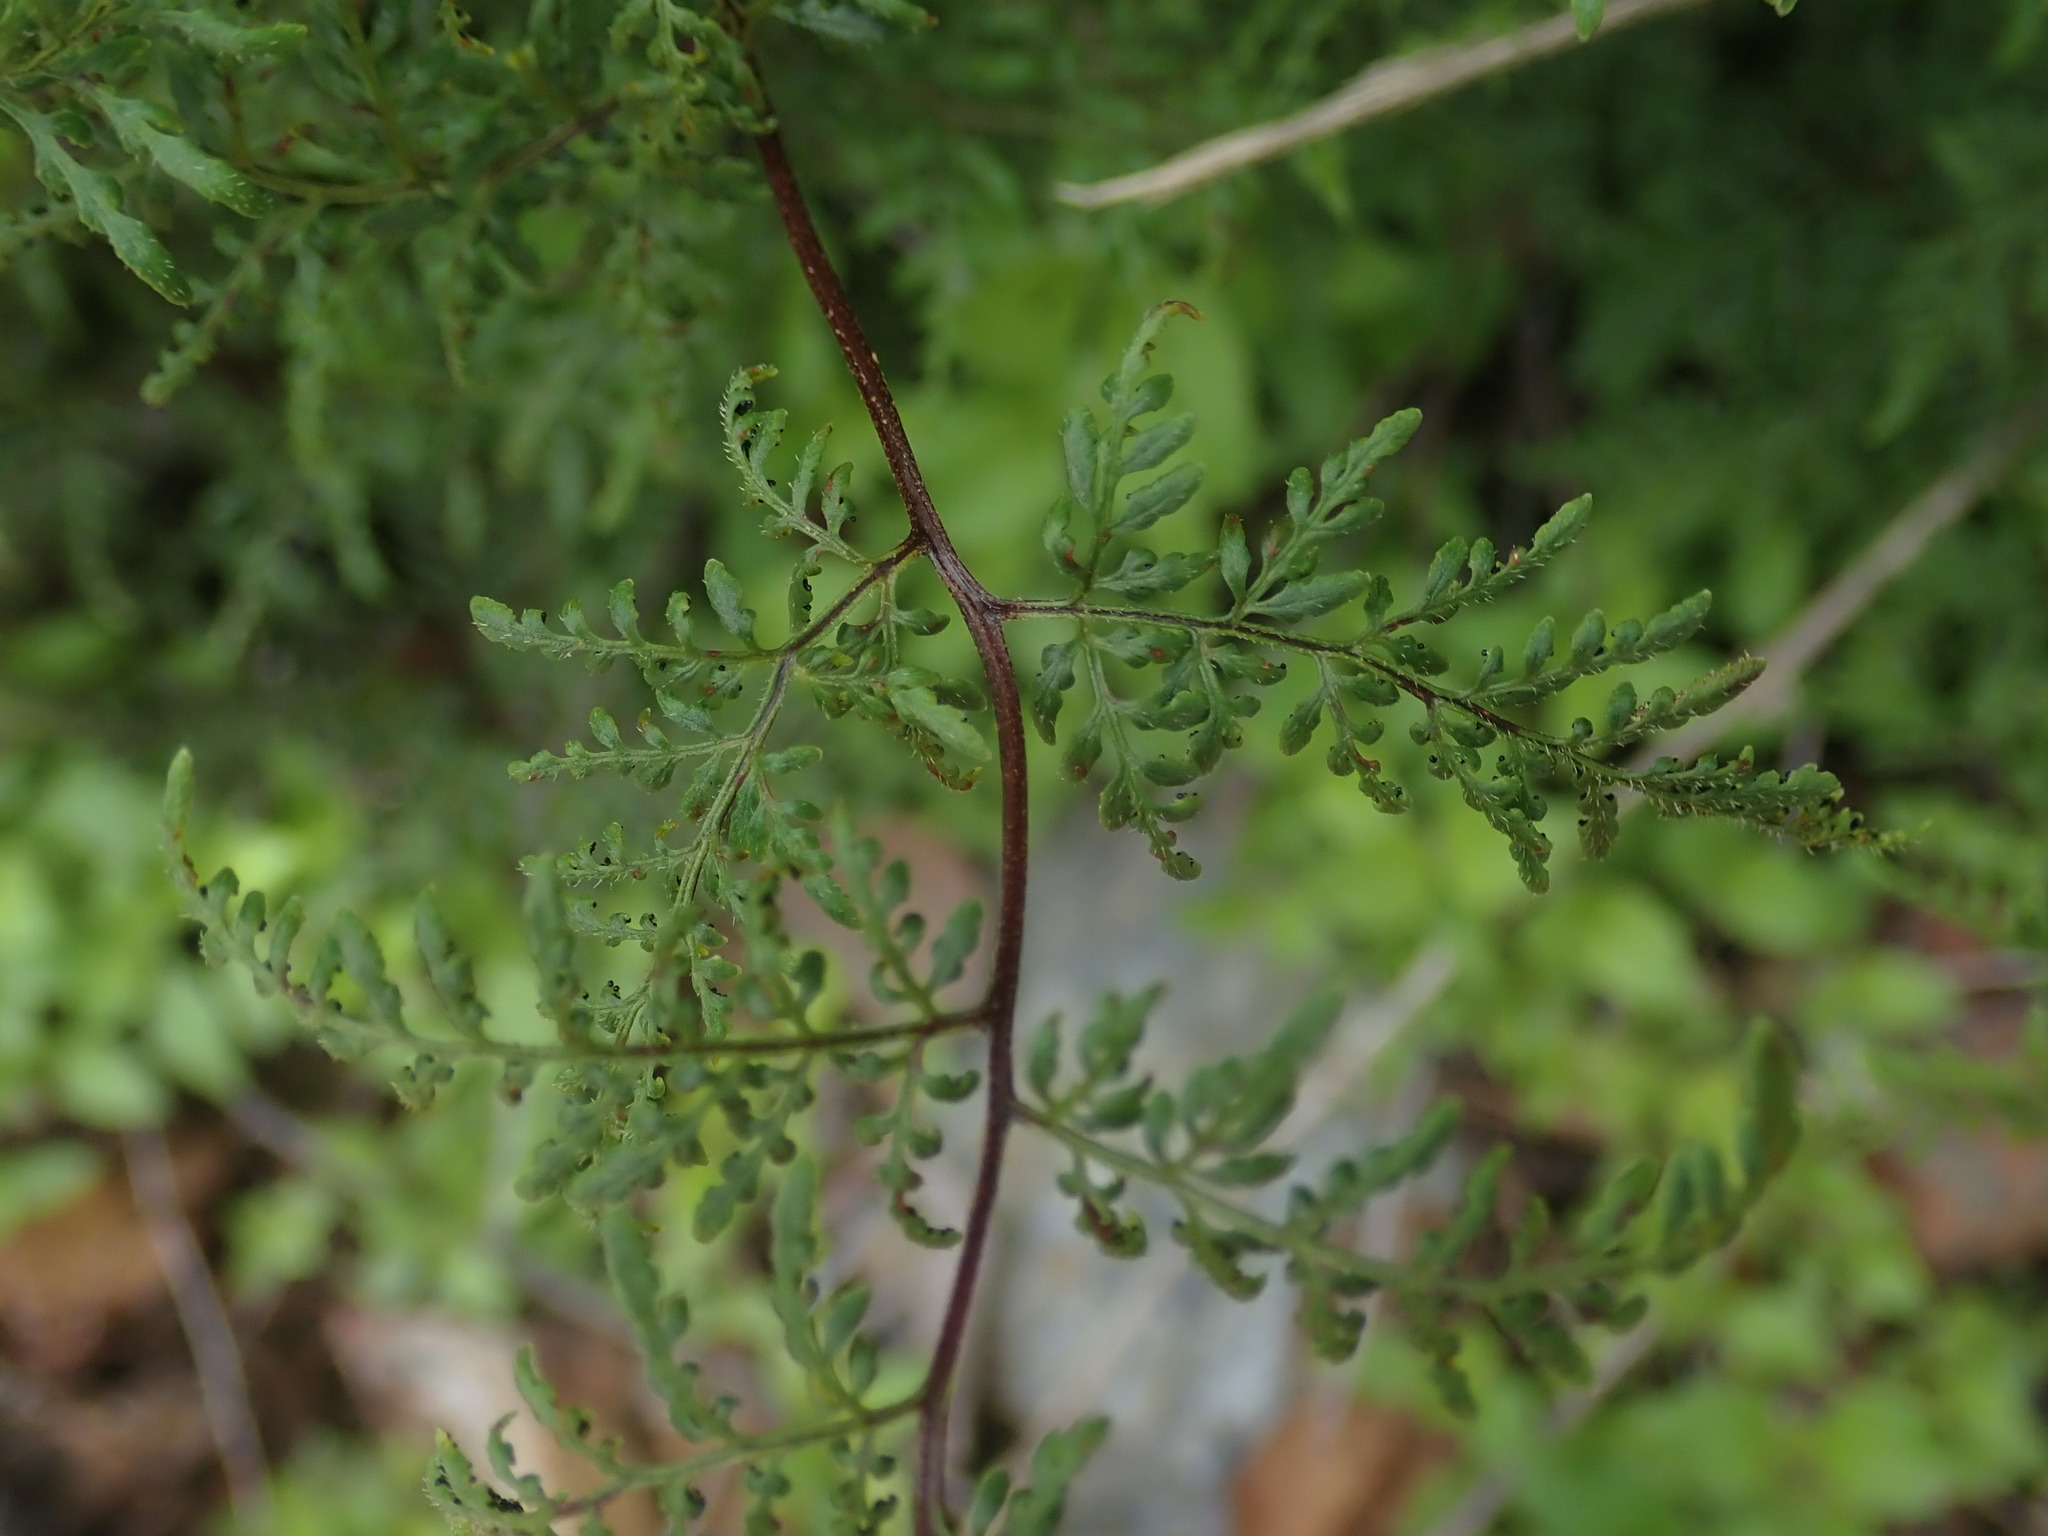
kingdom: Plantae
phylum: Tracheophyta
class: Polypodiopsida
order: Polypodiales
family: Pteridaceae
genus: Cheilanthes
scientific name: Cheilanthes tenuifolia
